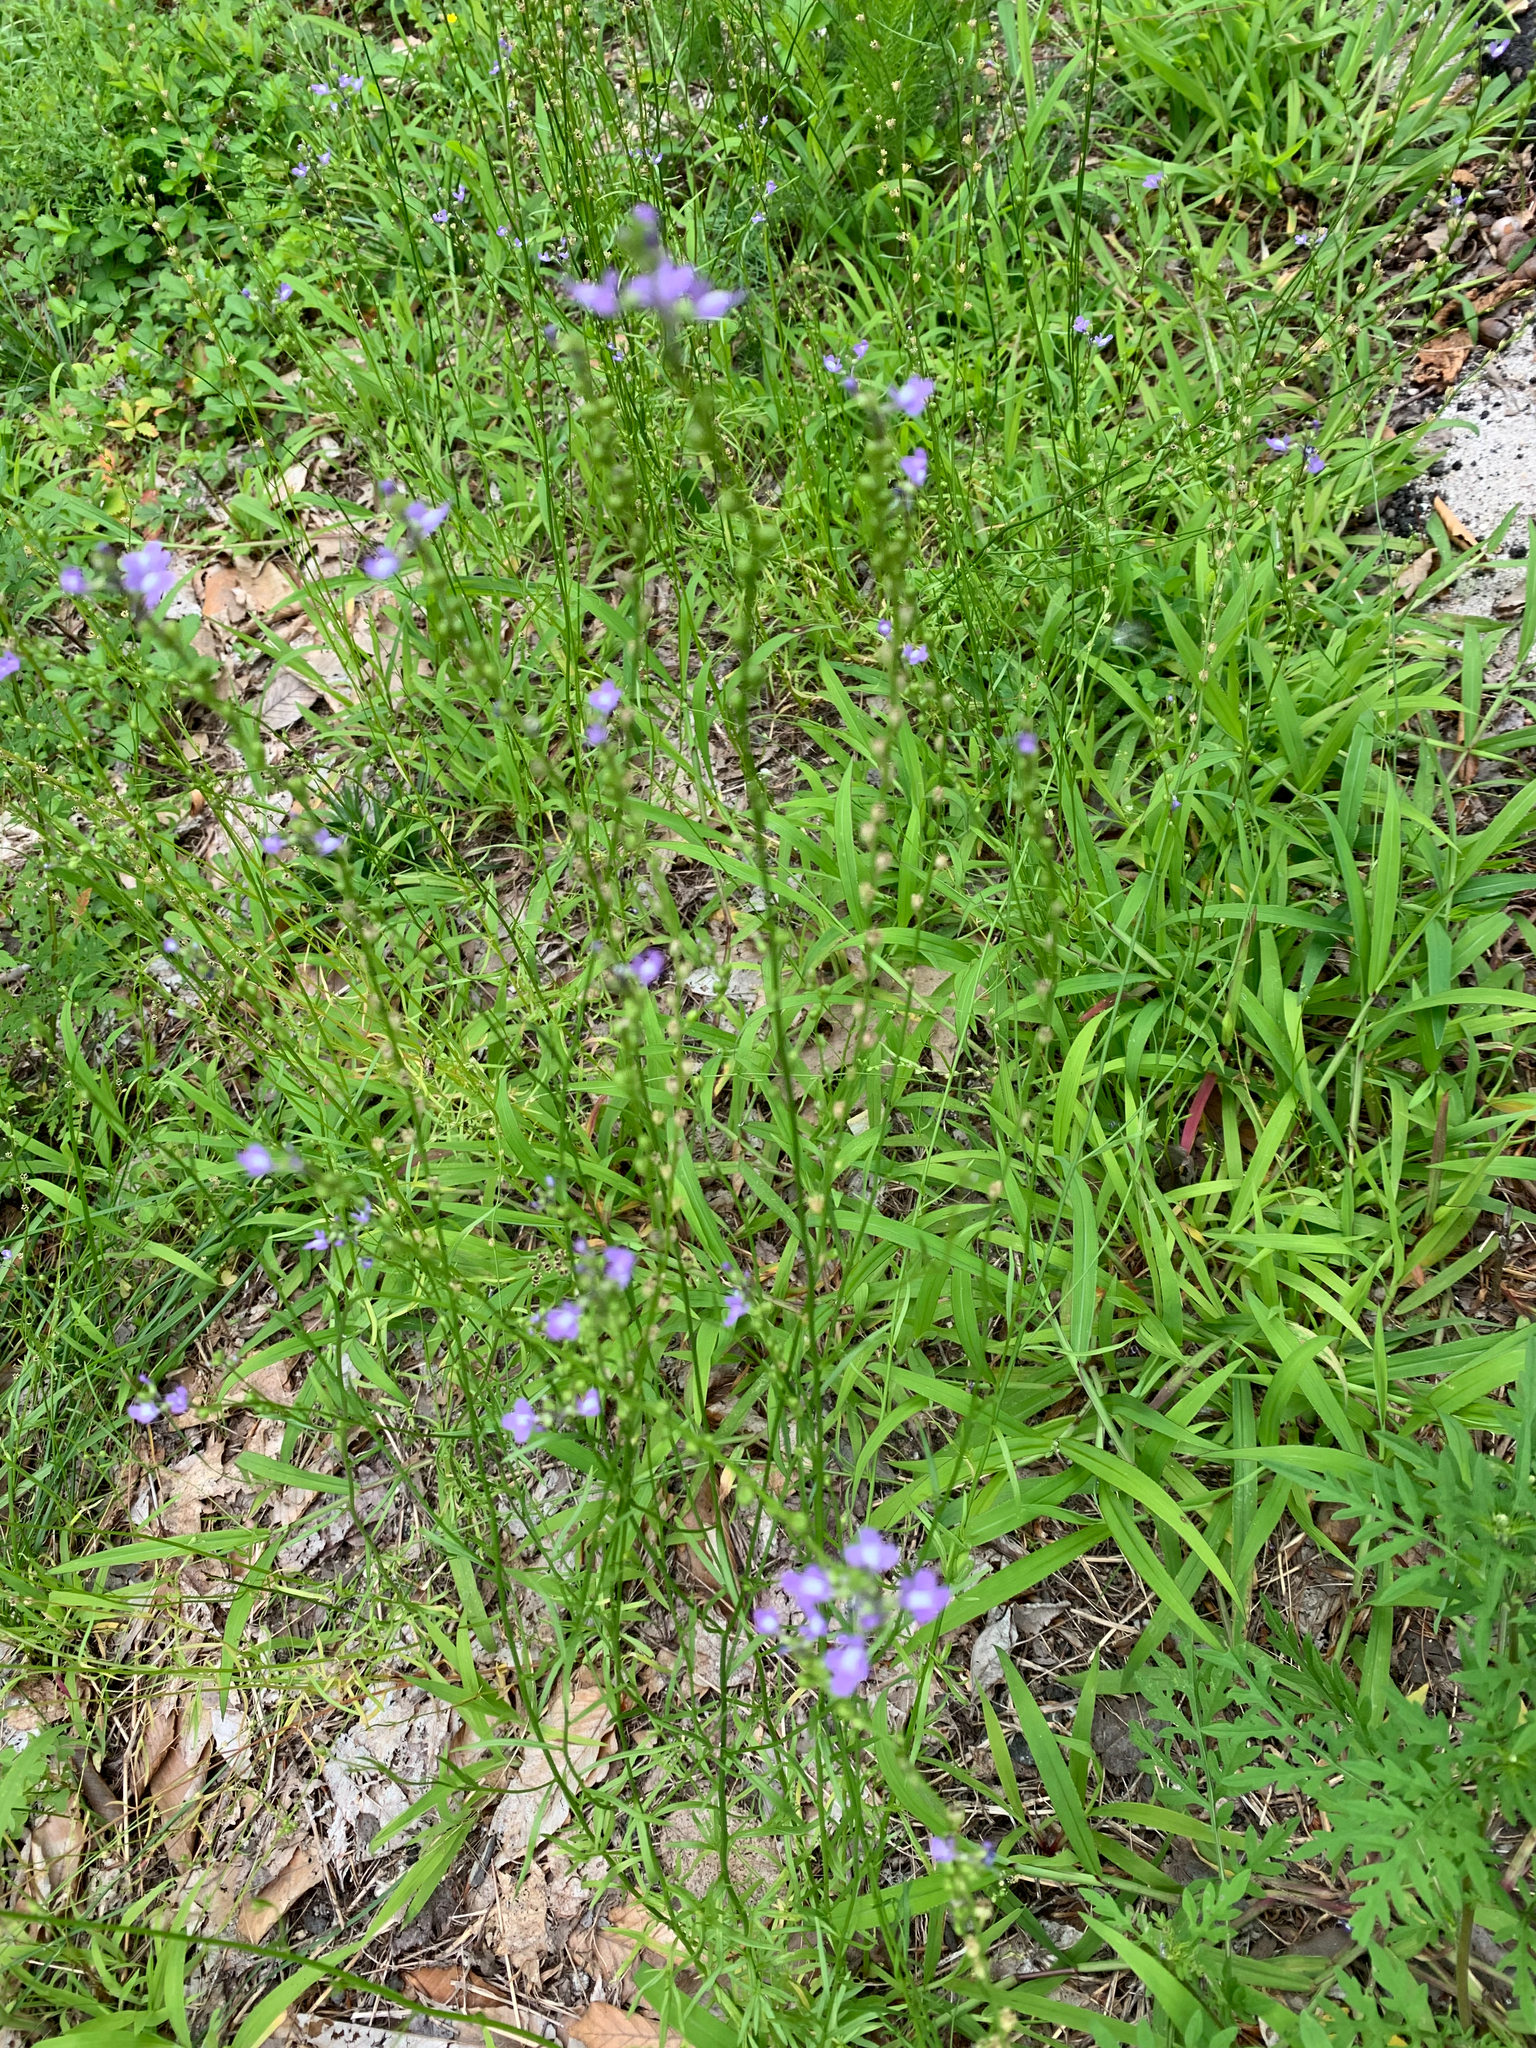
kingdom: Plantae
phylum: Tracheophyta
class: Magnoliopsida
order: Lamiales
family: Plantaginaceae
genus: Nuttallanthus
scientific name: Nuttallanthus canadensis
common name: Blue toadflax
